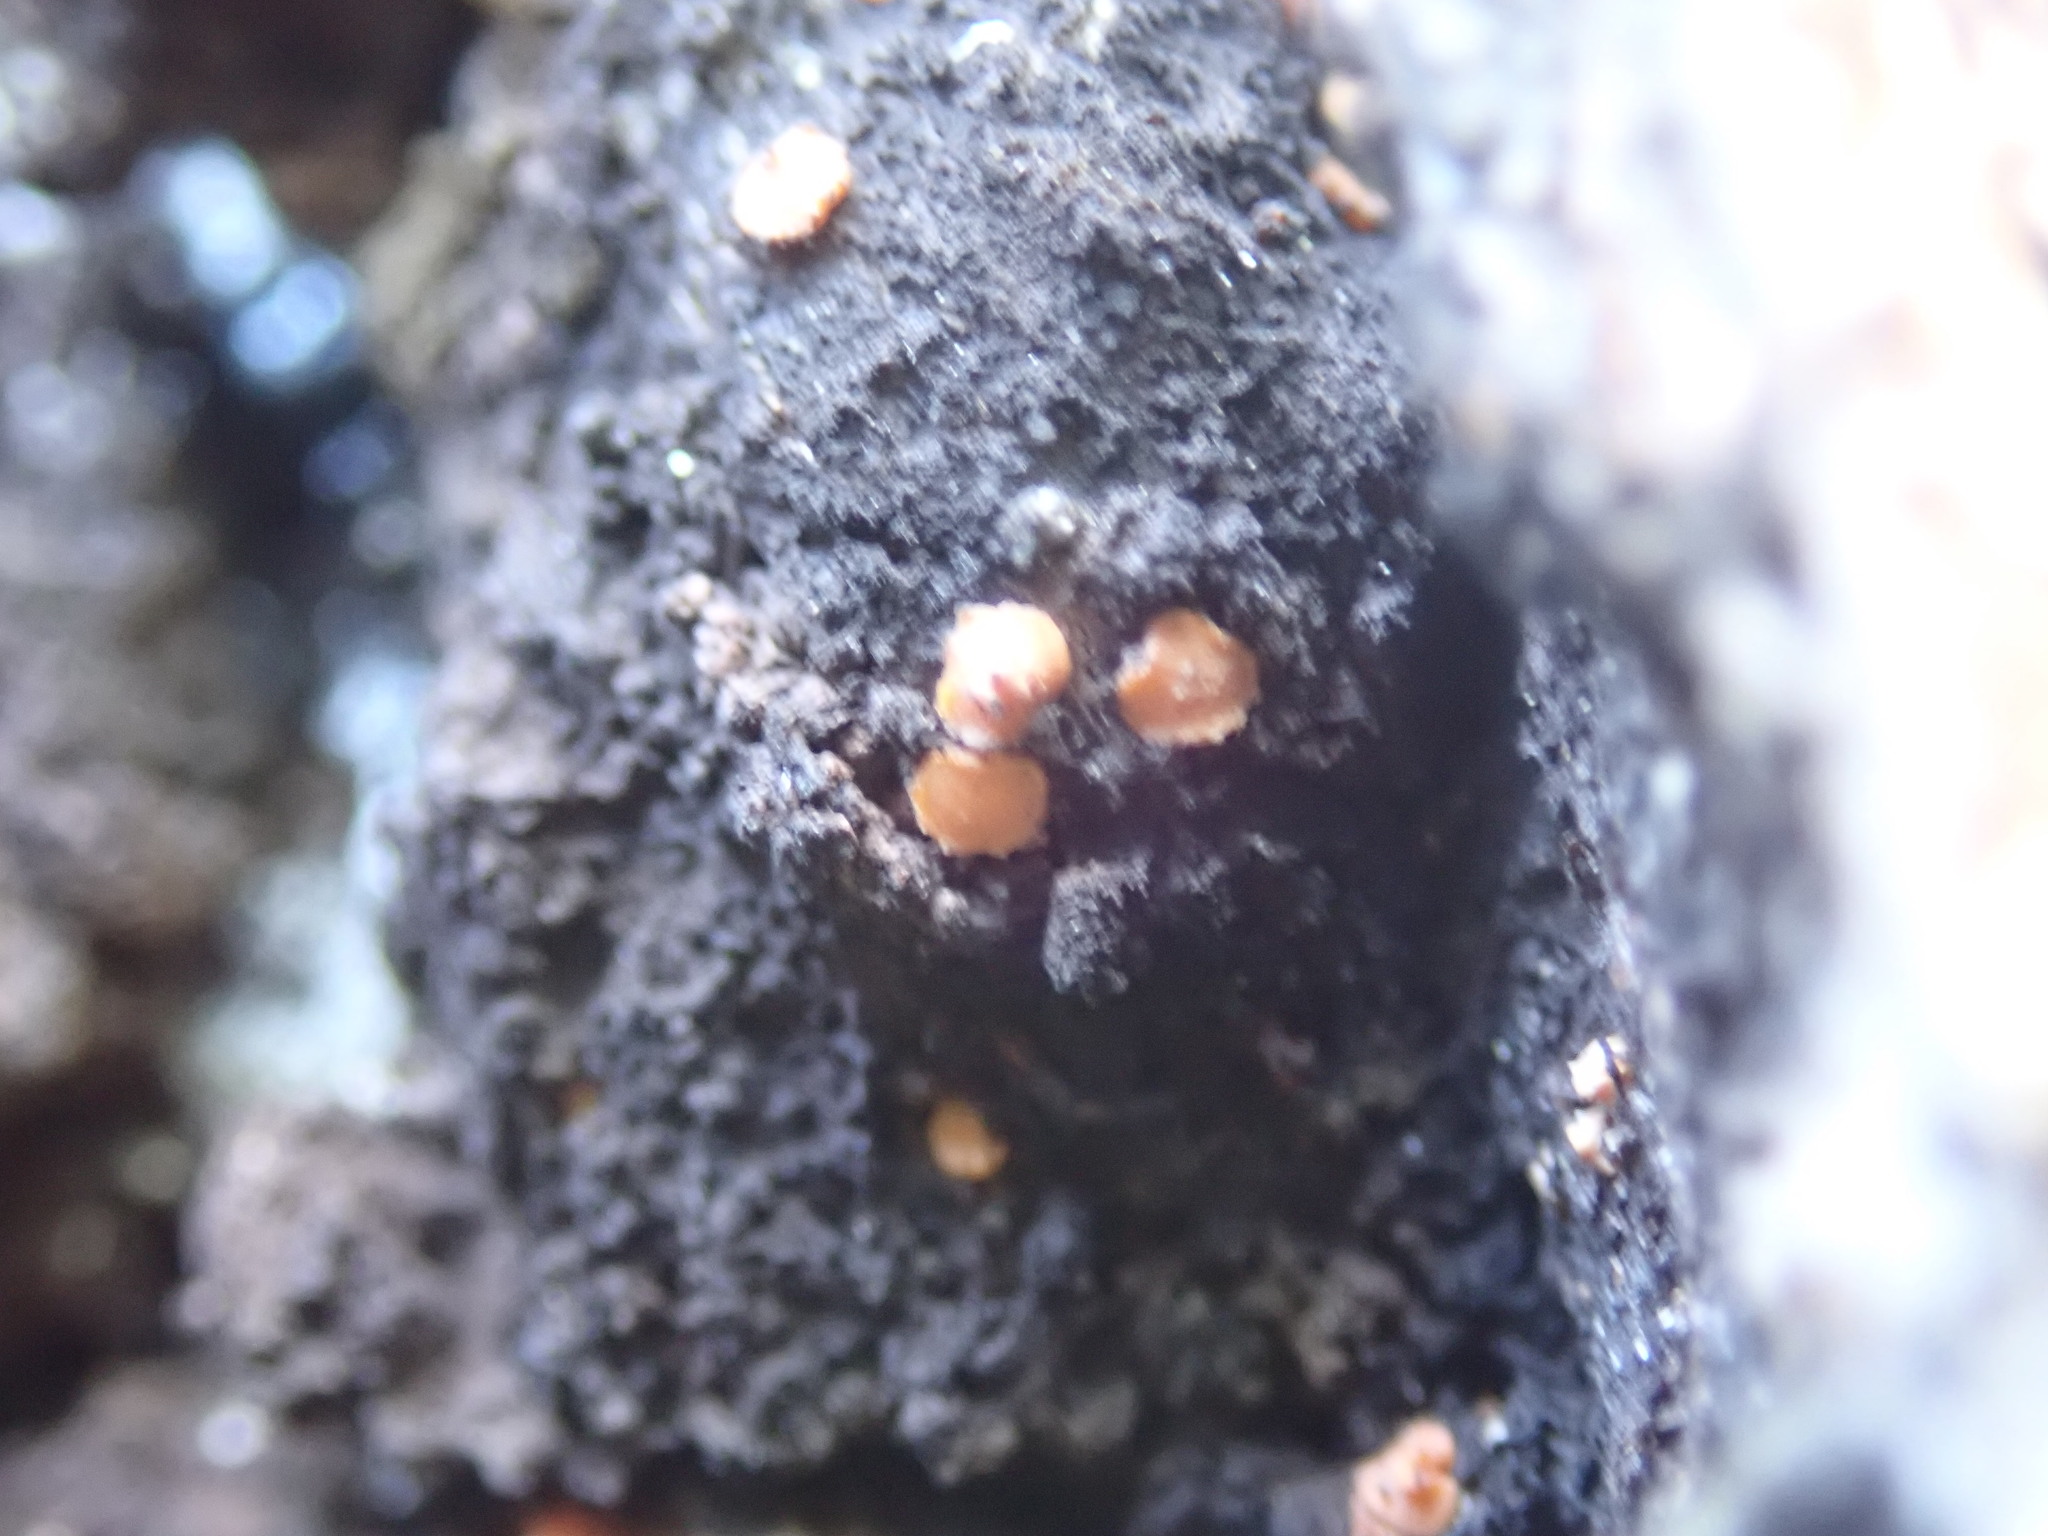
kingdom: Fungi
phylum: Ascomycota
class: Sareomycetes
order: Sareales
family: Sareaceae
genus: Sarea
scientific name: Sarea resinae
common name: Sarea lichen
